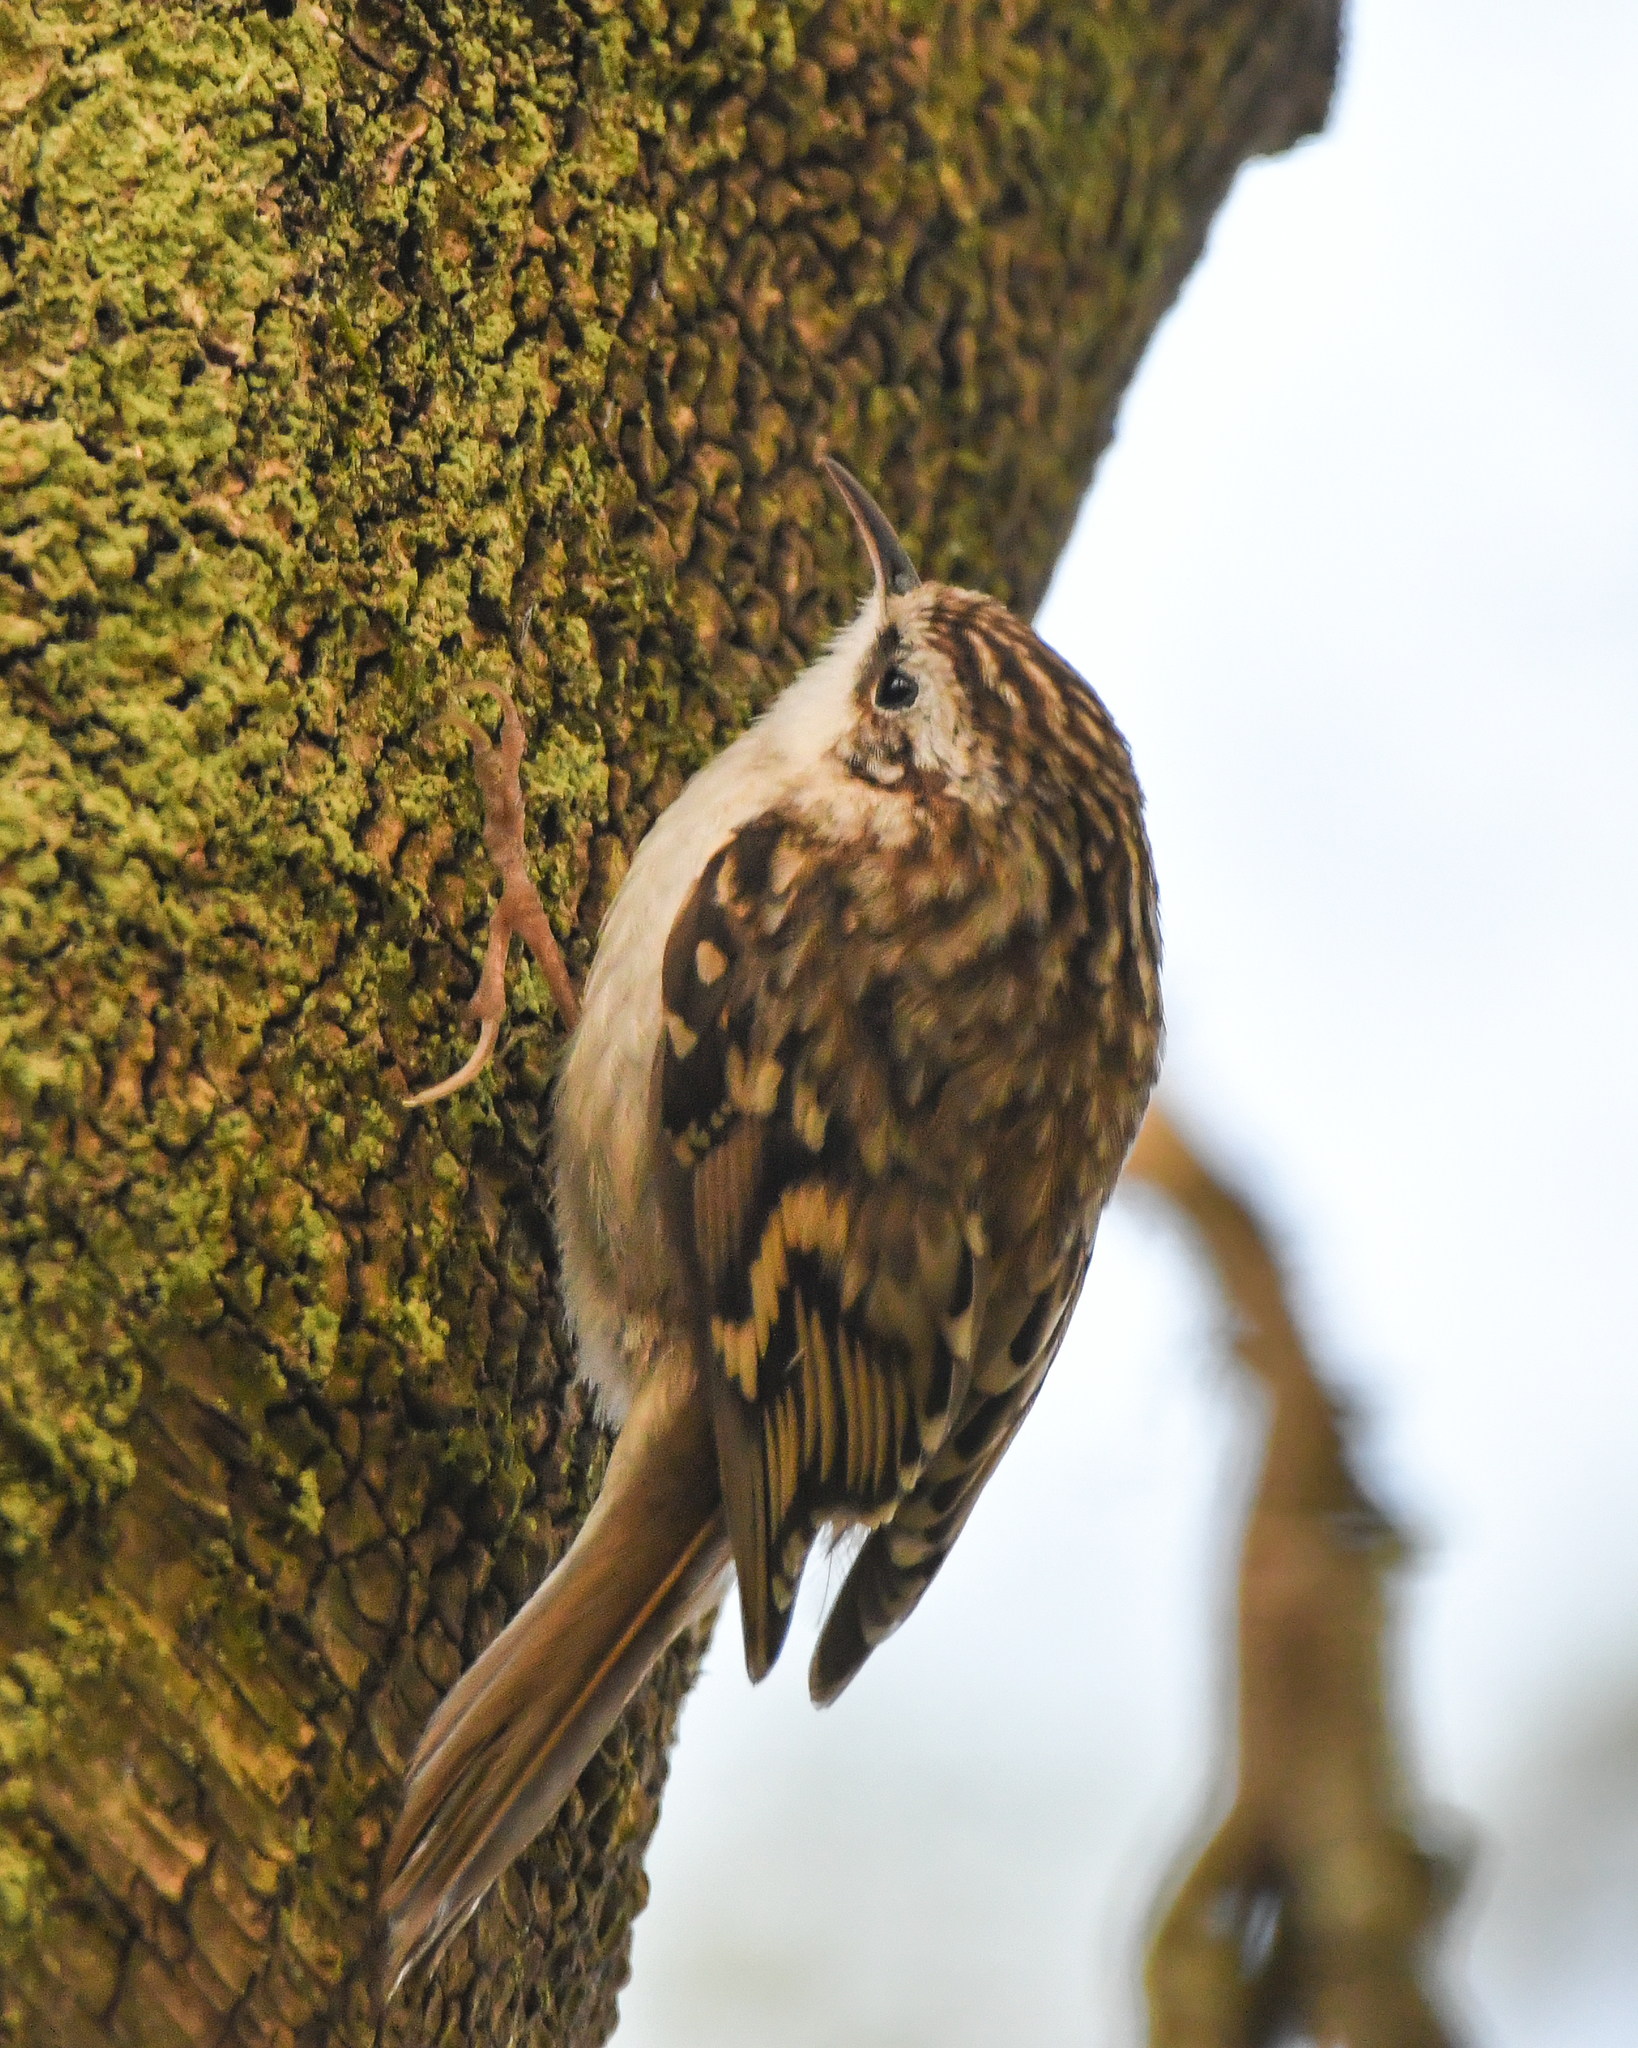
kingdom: Animalia
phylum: Chordata
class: Aves
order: Passeriformes
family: Certhiidae
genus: Certhia
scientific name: Certhia familiaris
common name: Eurasian treecreeper
